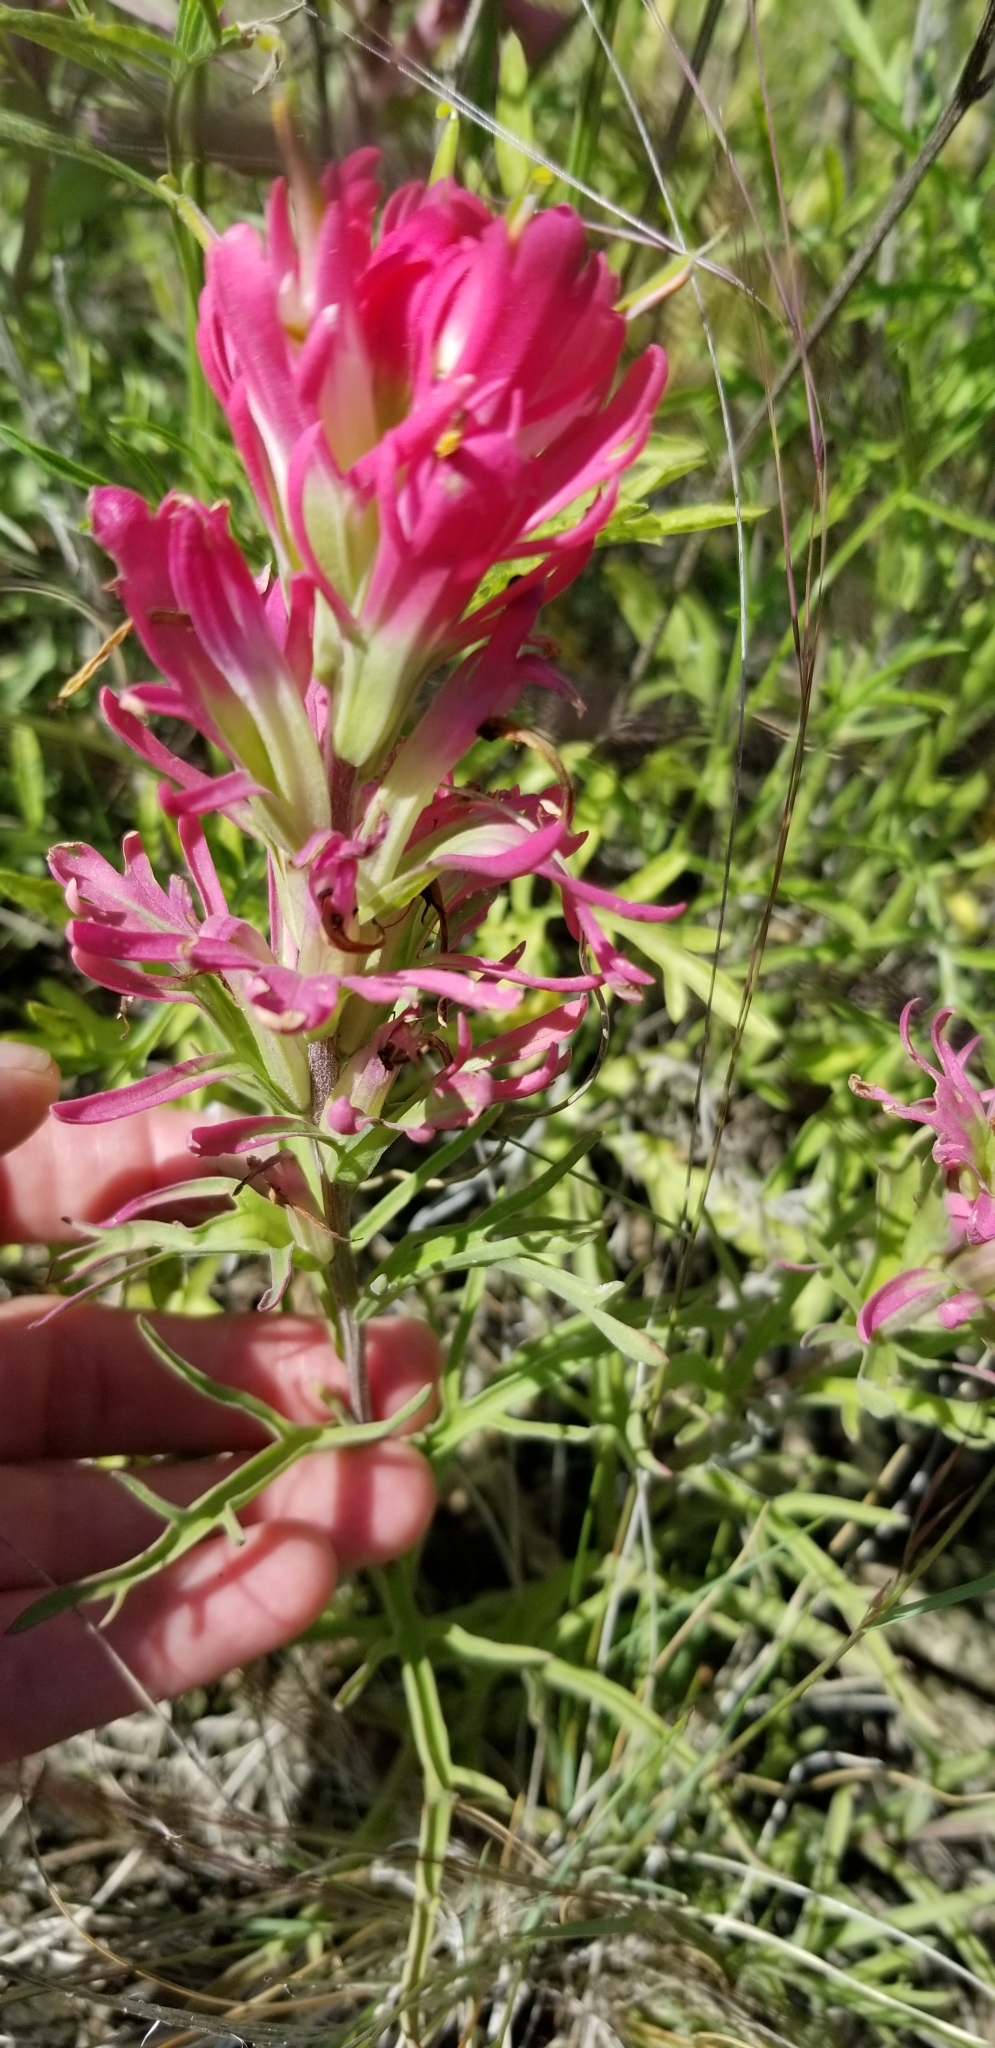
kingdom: Plantae
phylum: Tracheophyta
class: Magnoliopsida
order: Lamiales
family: Orobanchaceae
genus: Castilleja
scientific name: Castilleja purpurea
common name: Plains paintbrush
